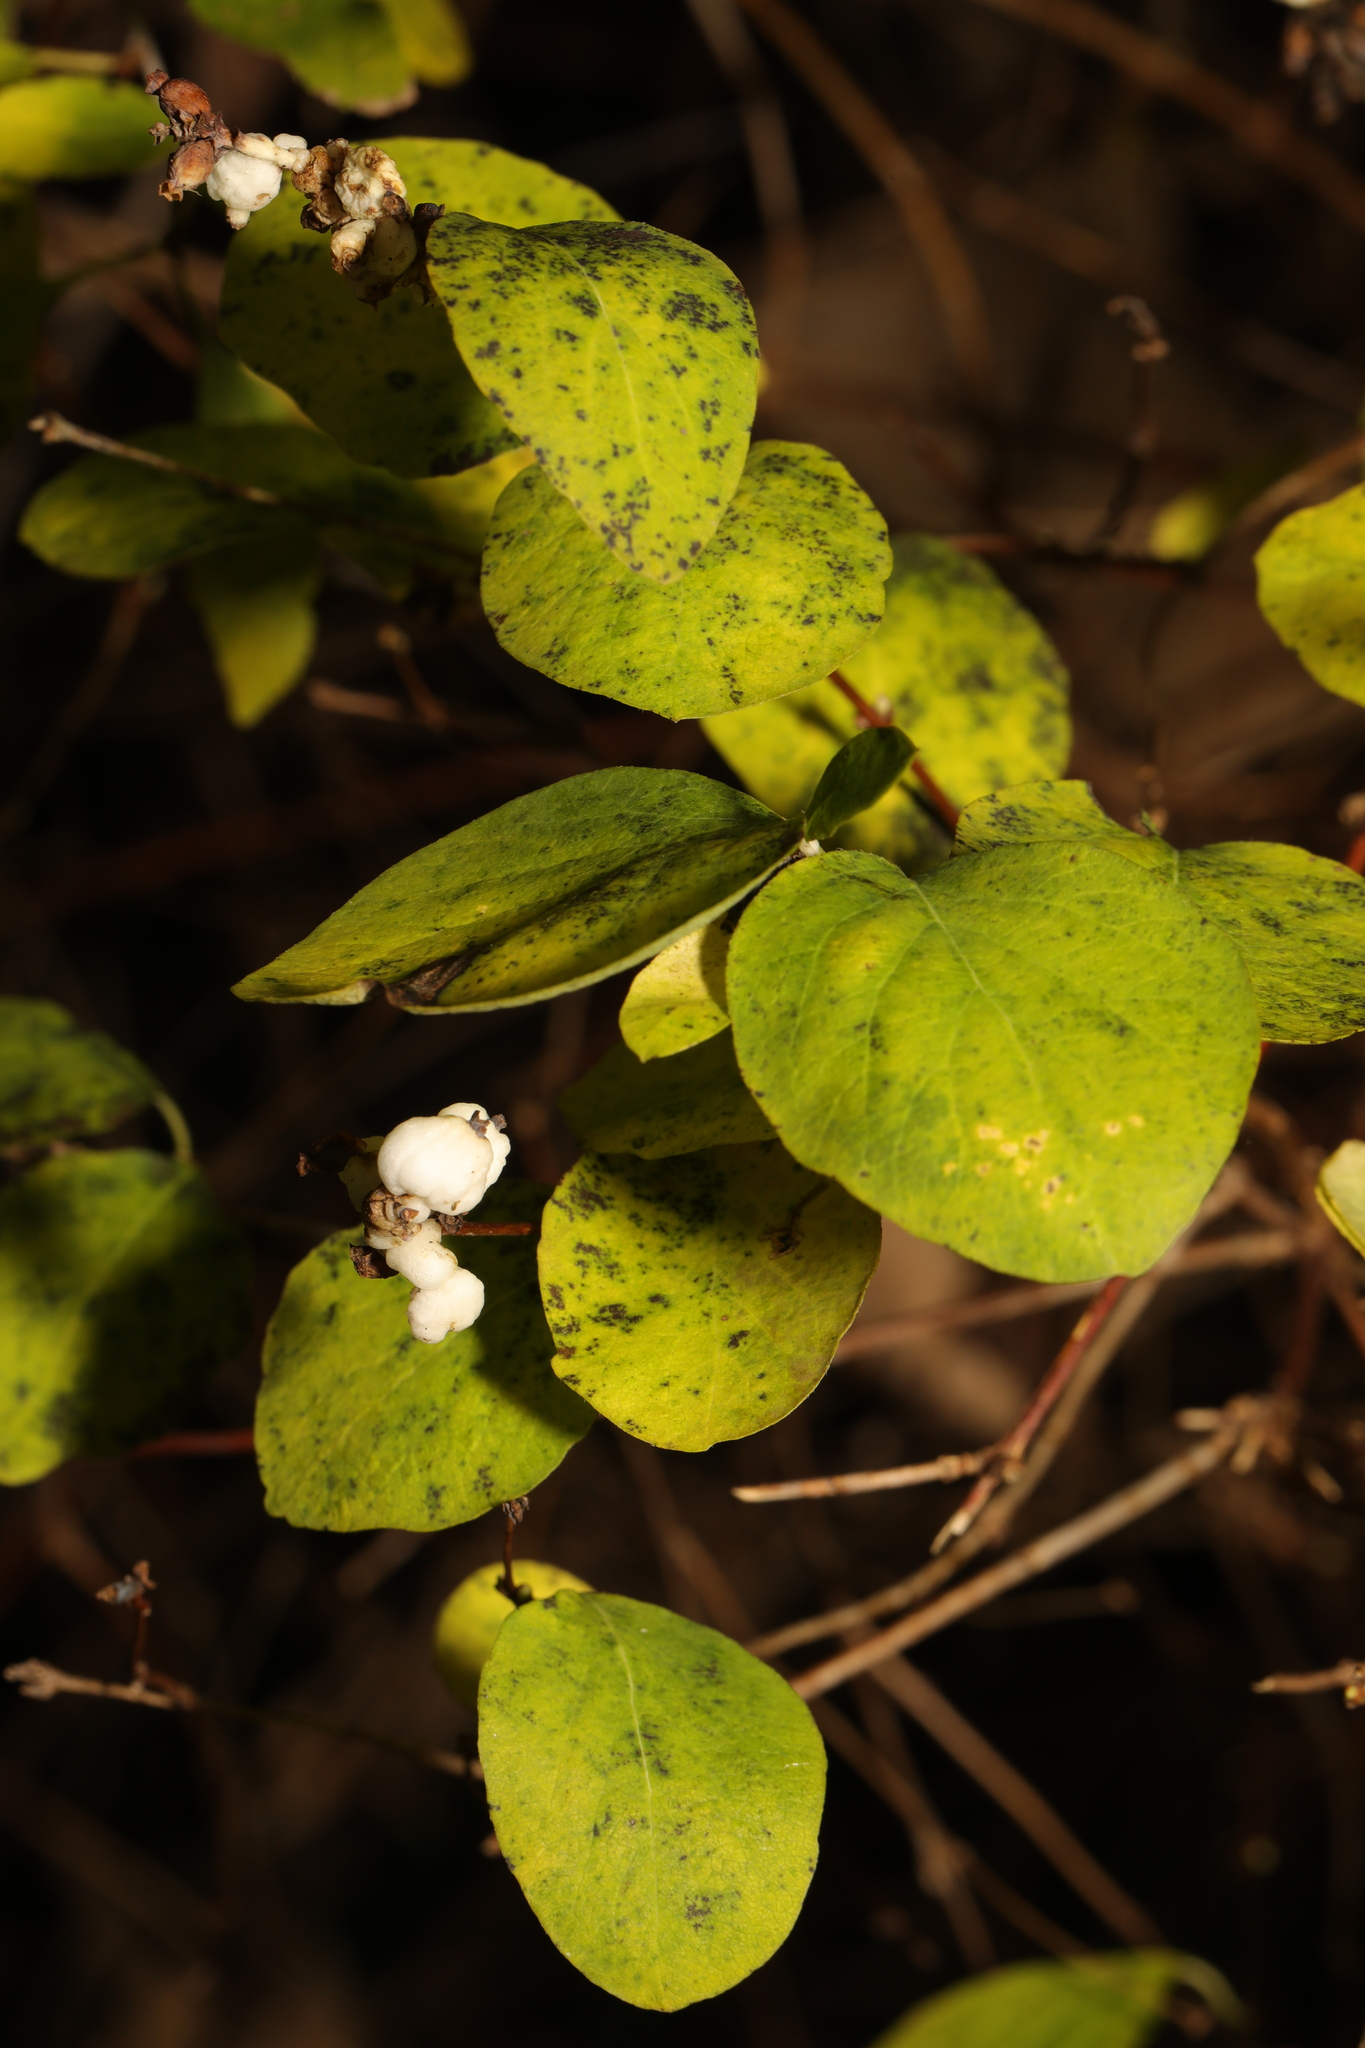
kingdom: Plantae
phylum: Tracheophyta
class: Magnoliopsida
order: Dipsacales
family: Caprifoliaceae
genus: Symphoricarpos
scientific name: Symphoricarpos albus
